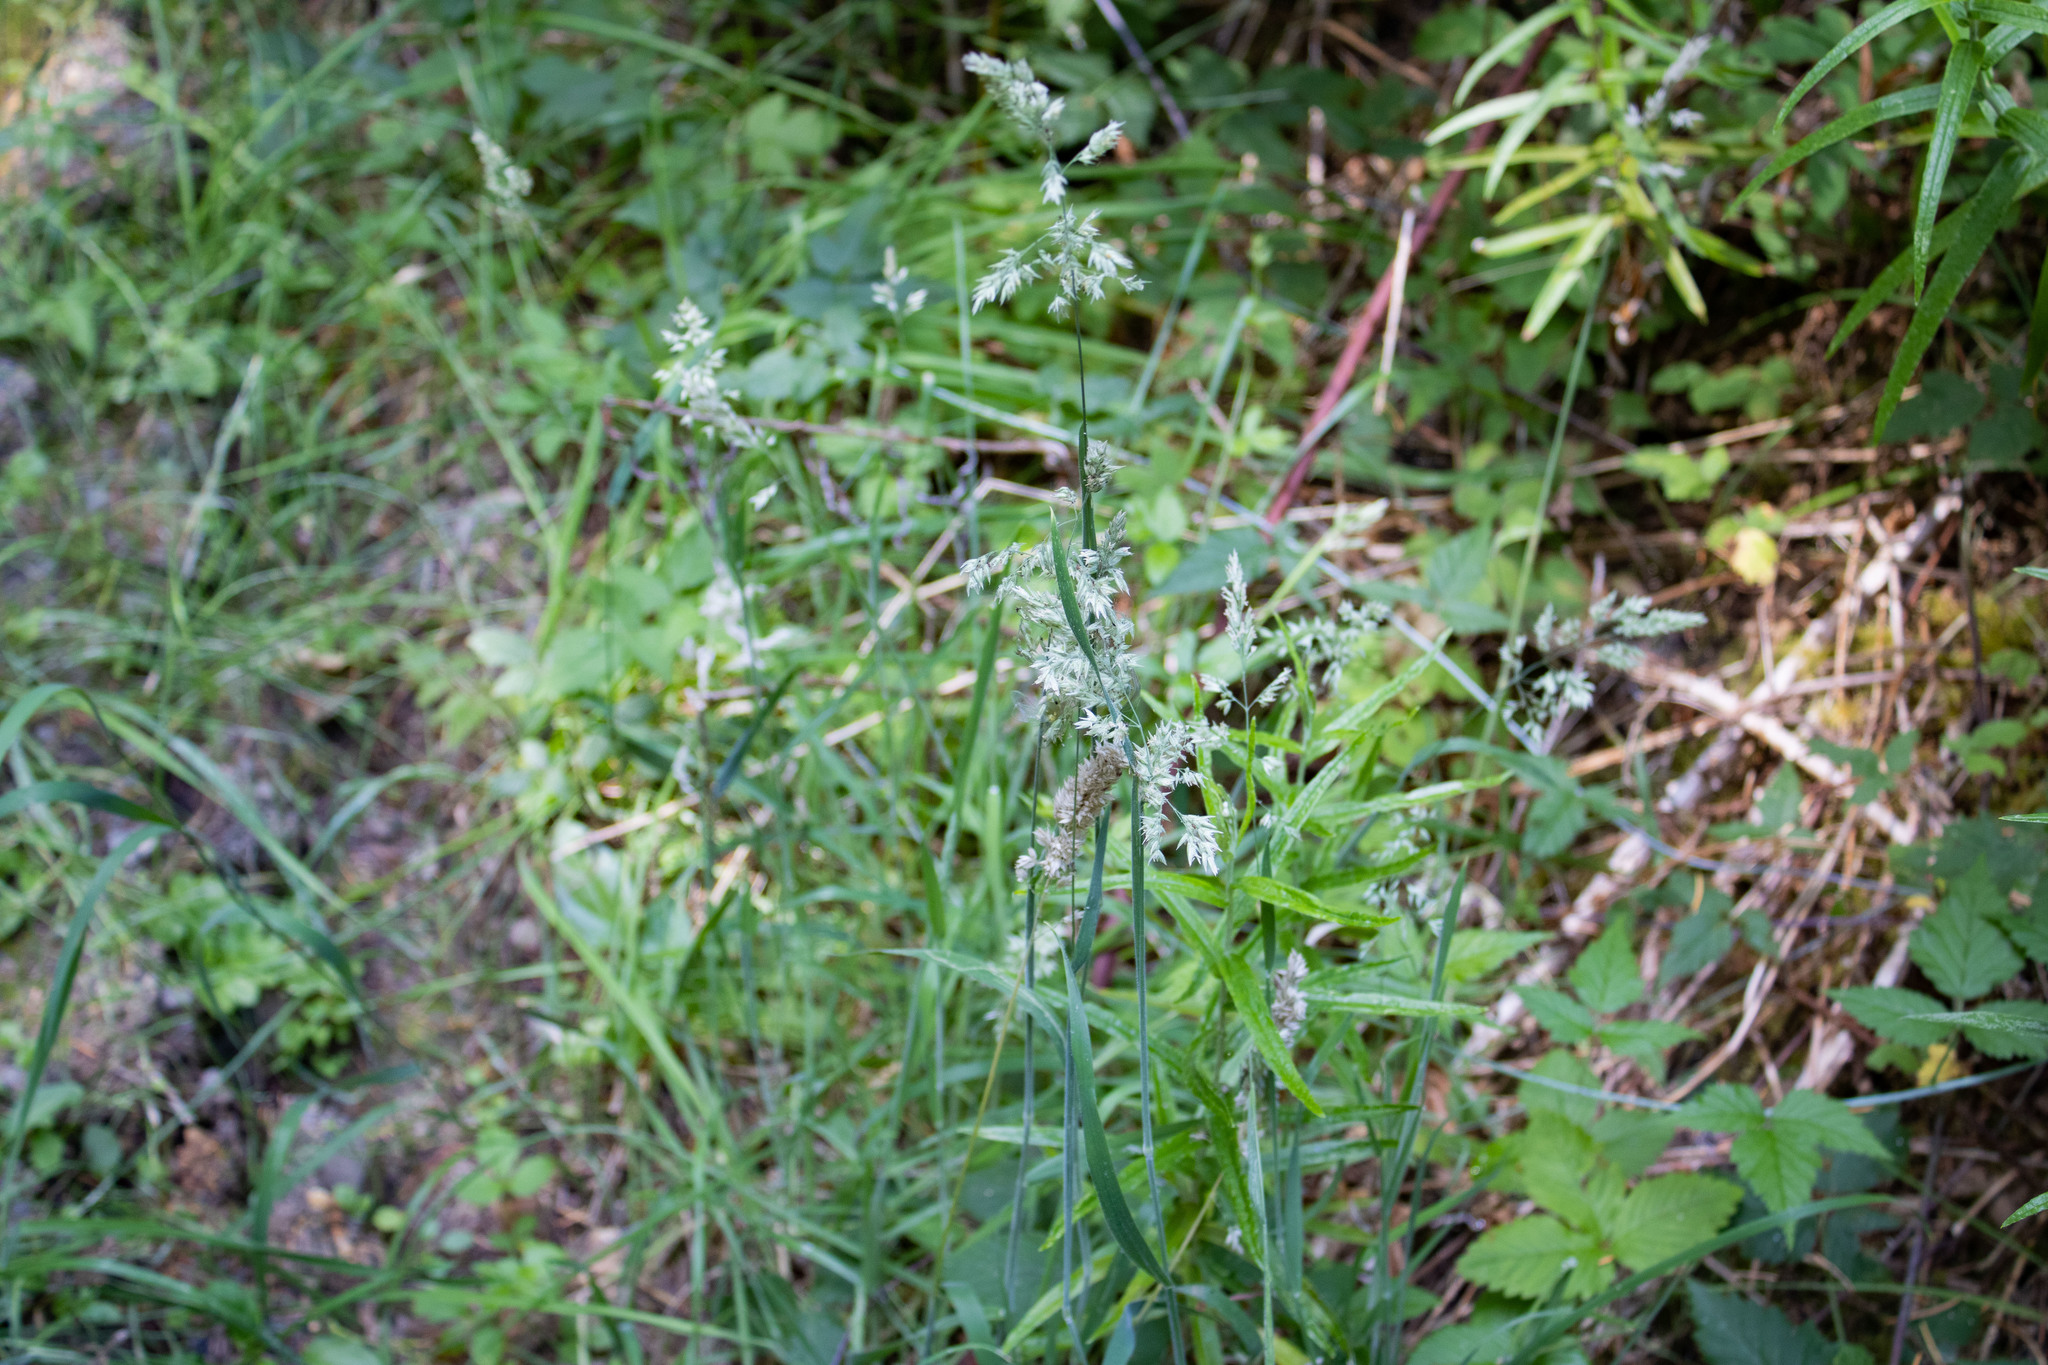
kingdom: Plantae
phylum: Tracheophyta
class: Liliopsida
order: Poales
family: Poaceae
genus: Holcus
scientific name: Holcus lanatus
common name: Yorkshire-fog
